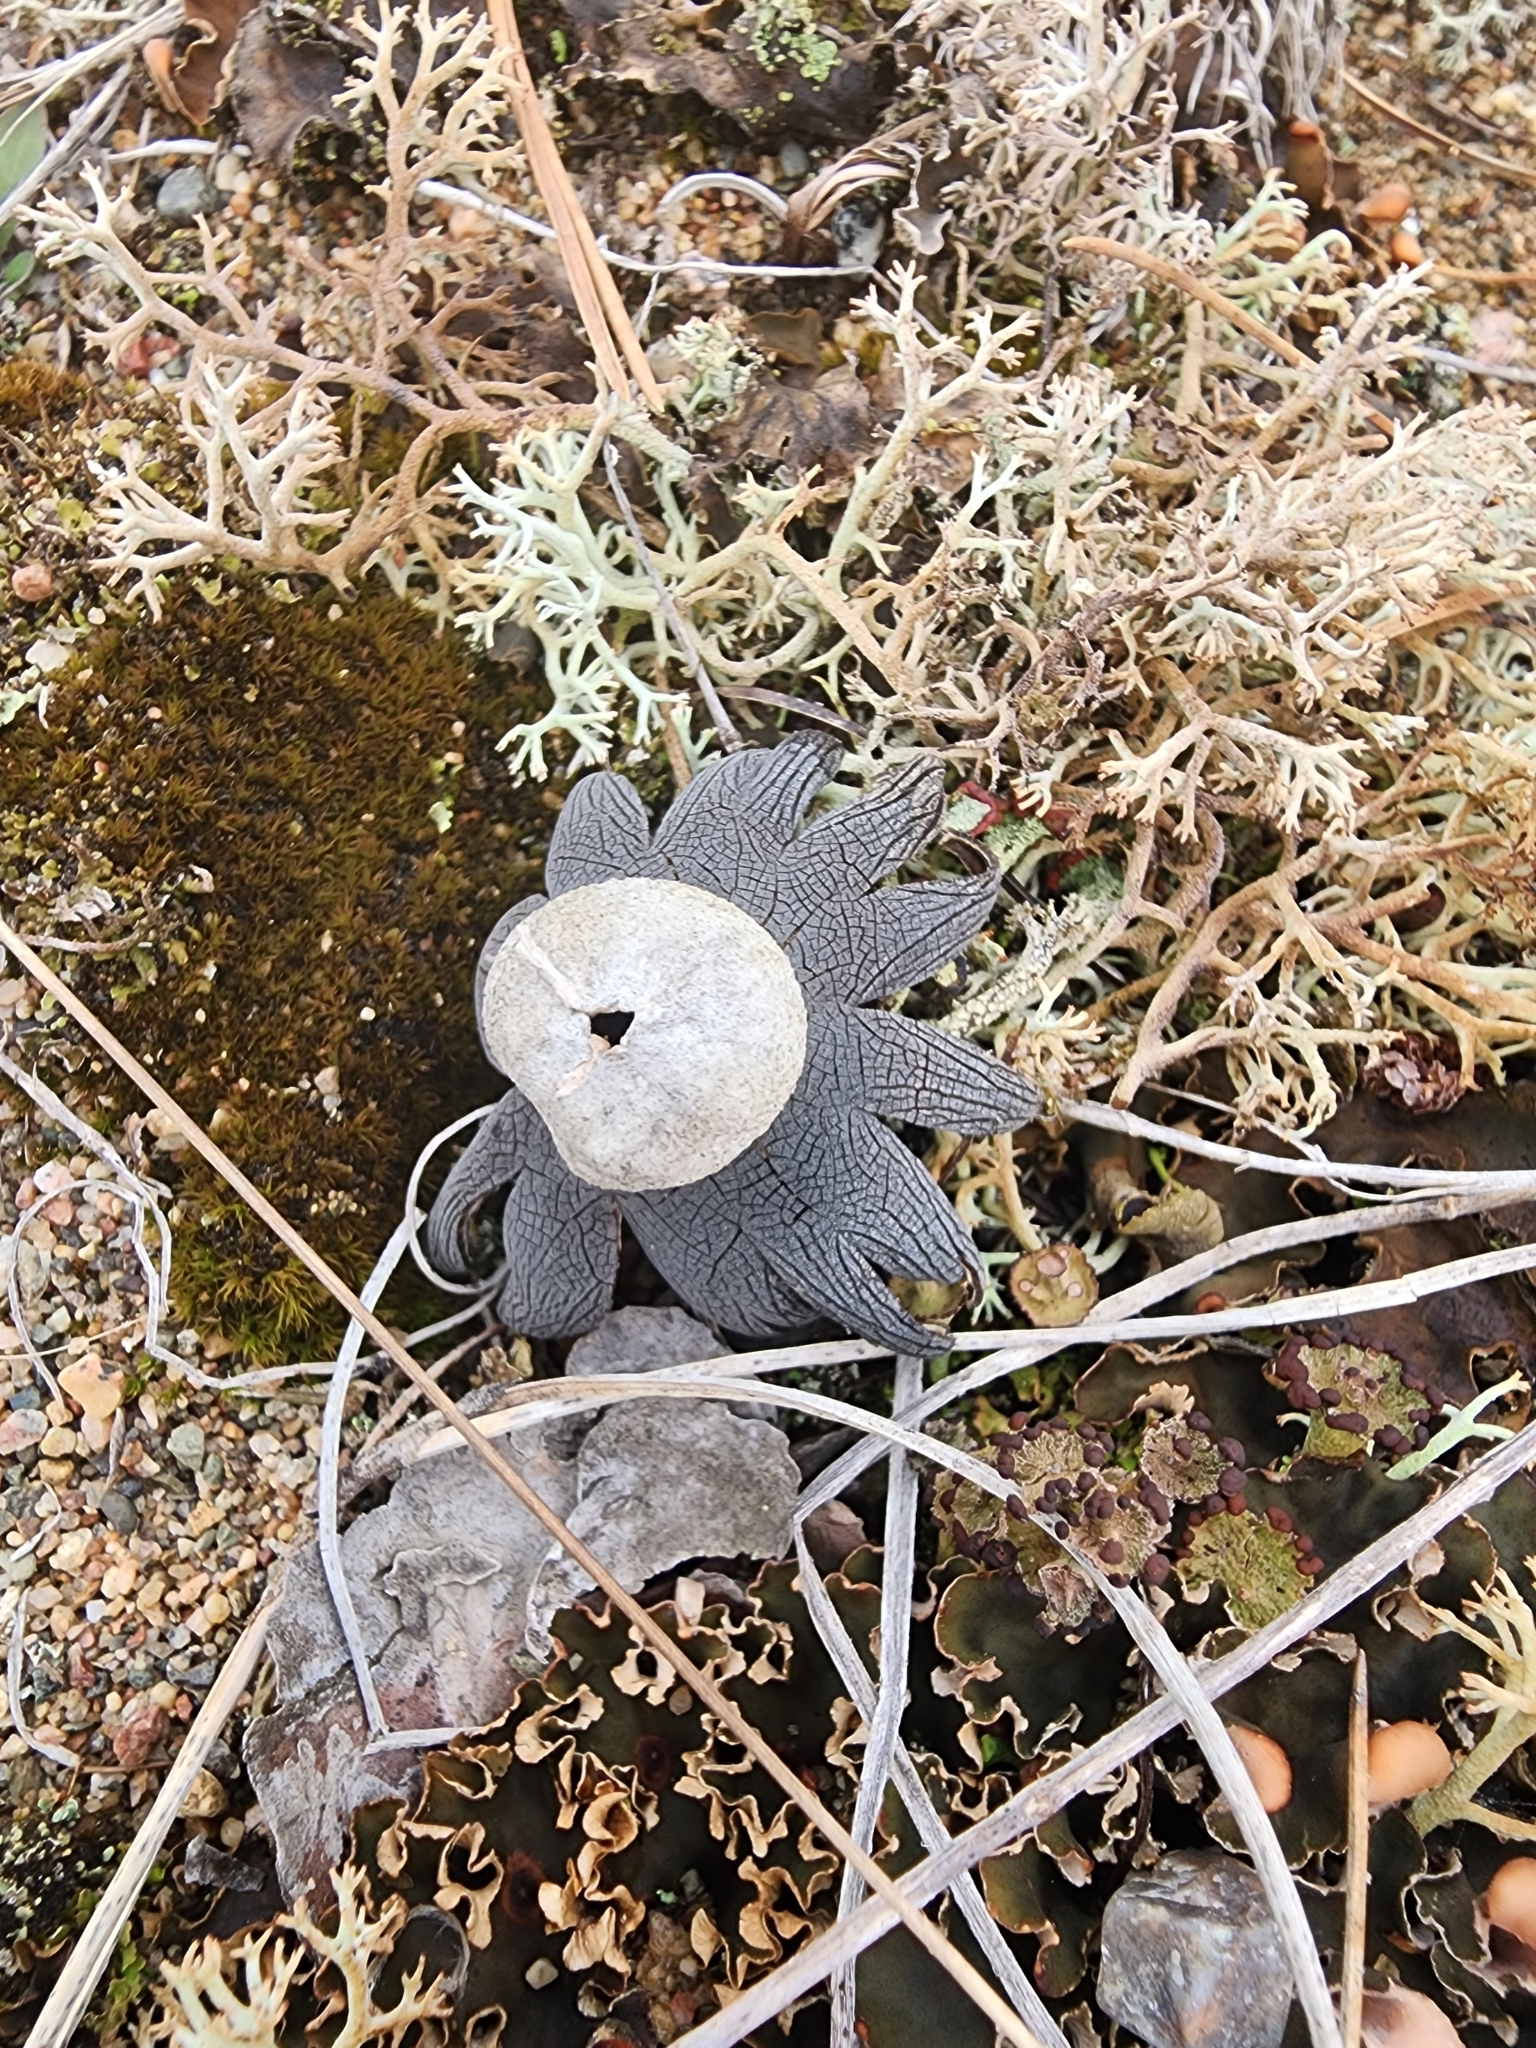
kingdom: Fungi
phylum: Basidiomycota
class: Agaricomycetes
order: Boletales
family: Diplocystidiaceae
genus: Astraeus
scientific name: Astraeus smithii
